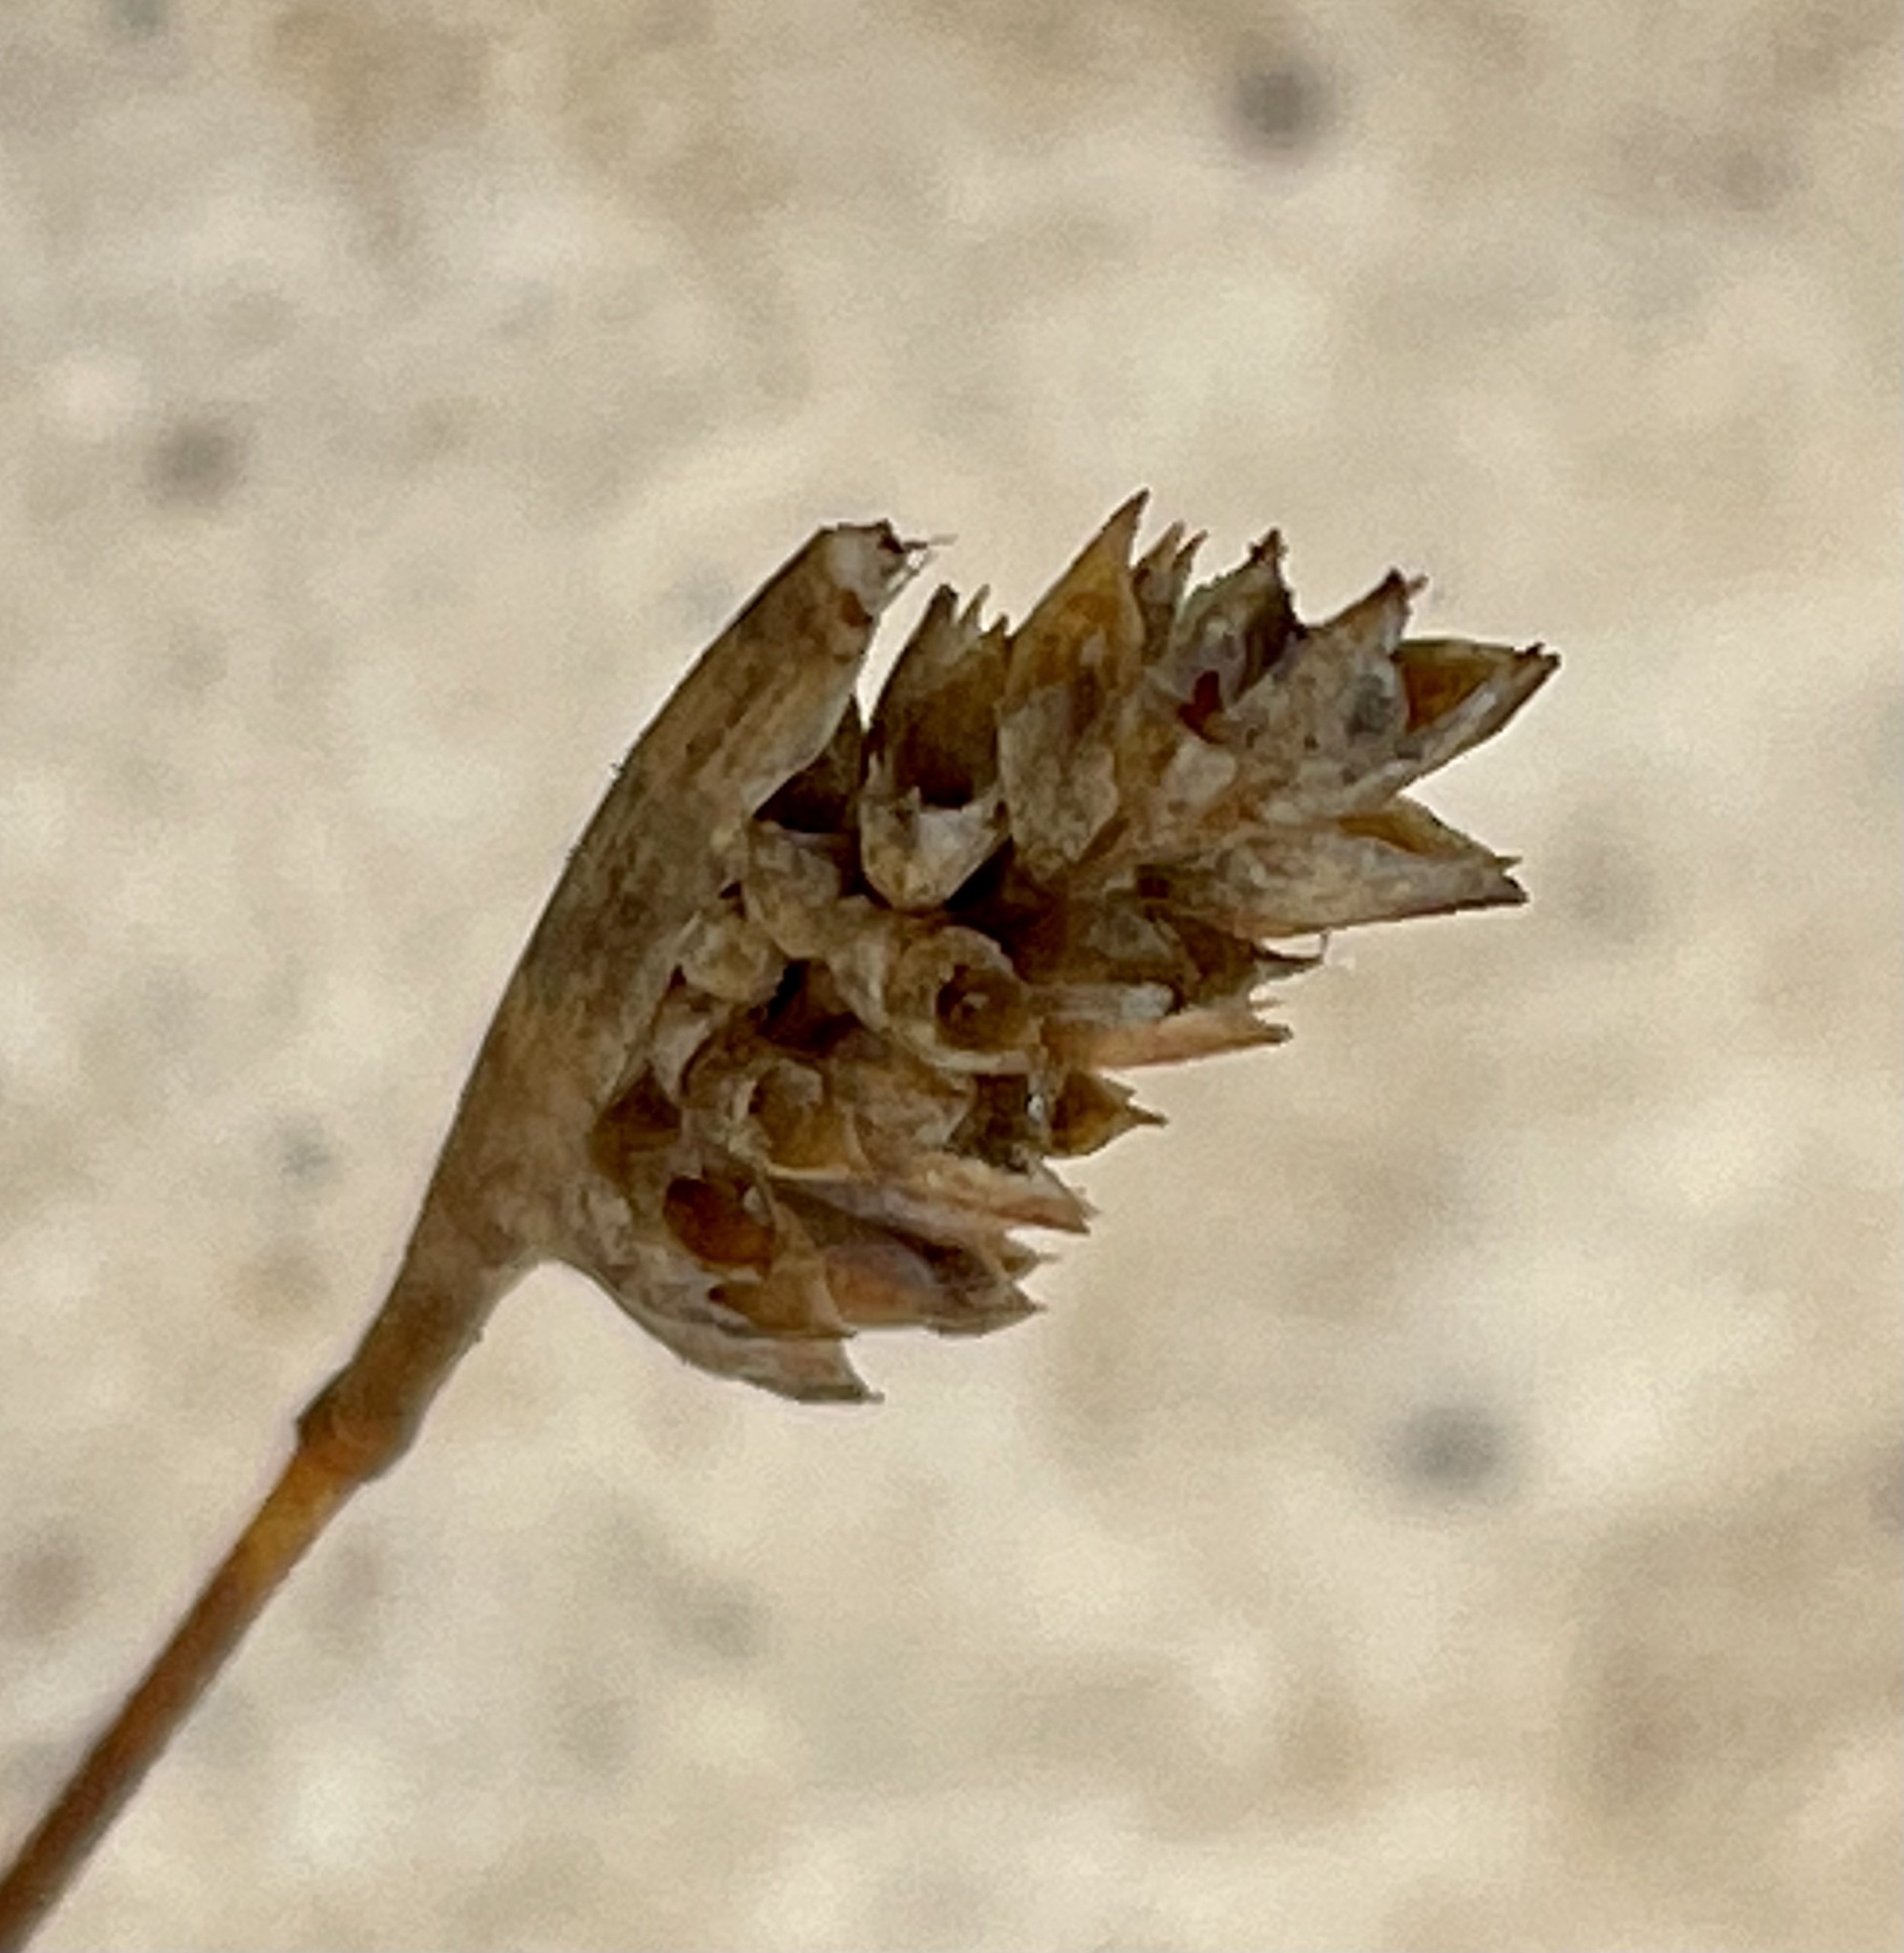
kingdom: Plantae
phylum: Tracheophyta
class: Liliopsida
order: Poales
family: Poaceae
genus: Tribolium
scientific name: Tribolium obliterum
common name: Capetown grass
